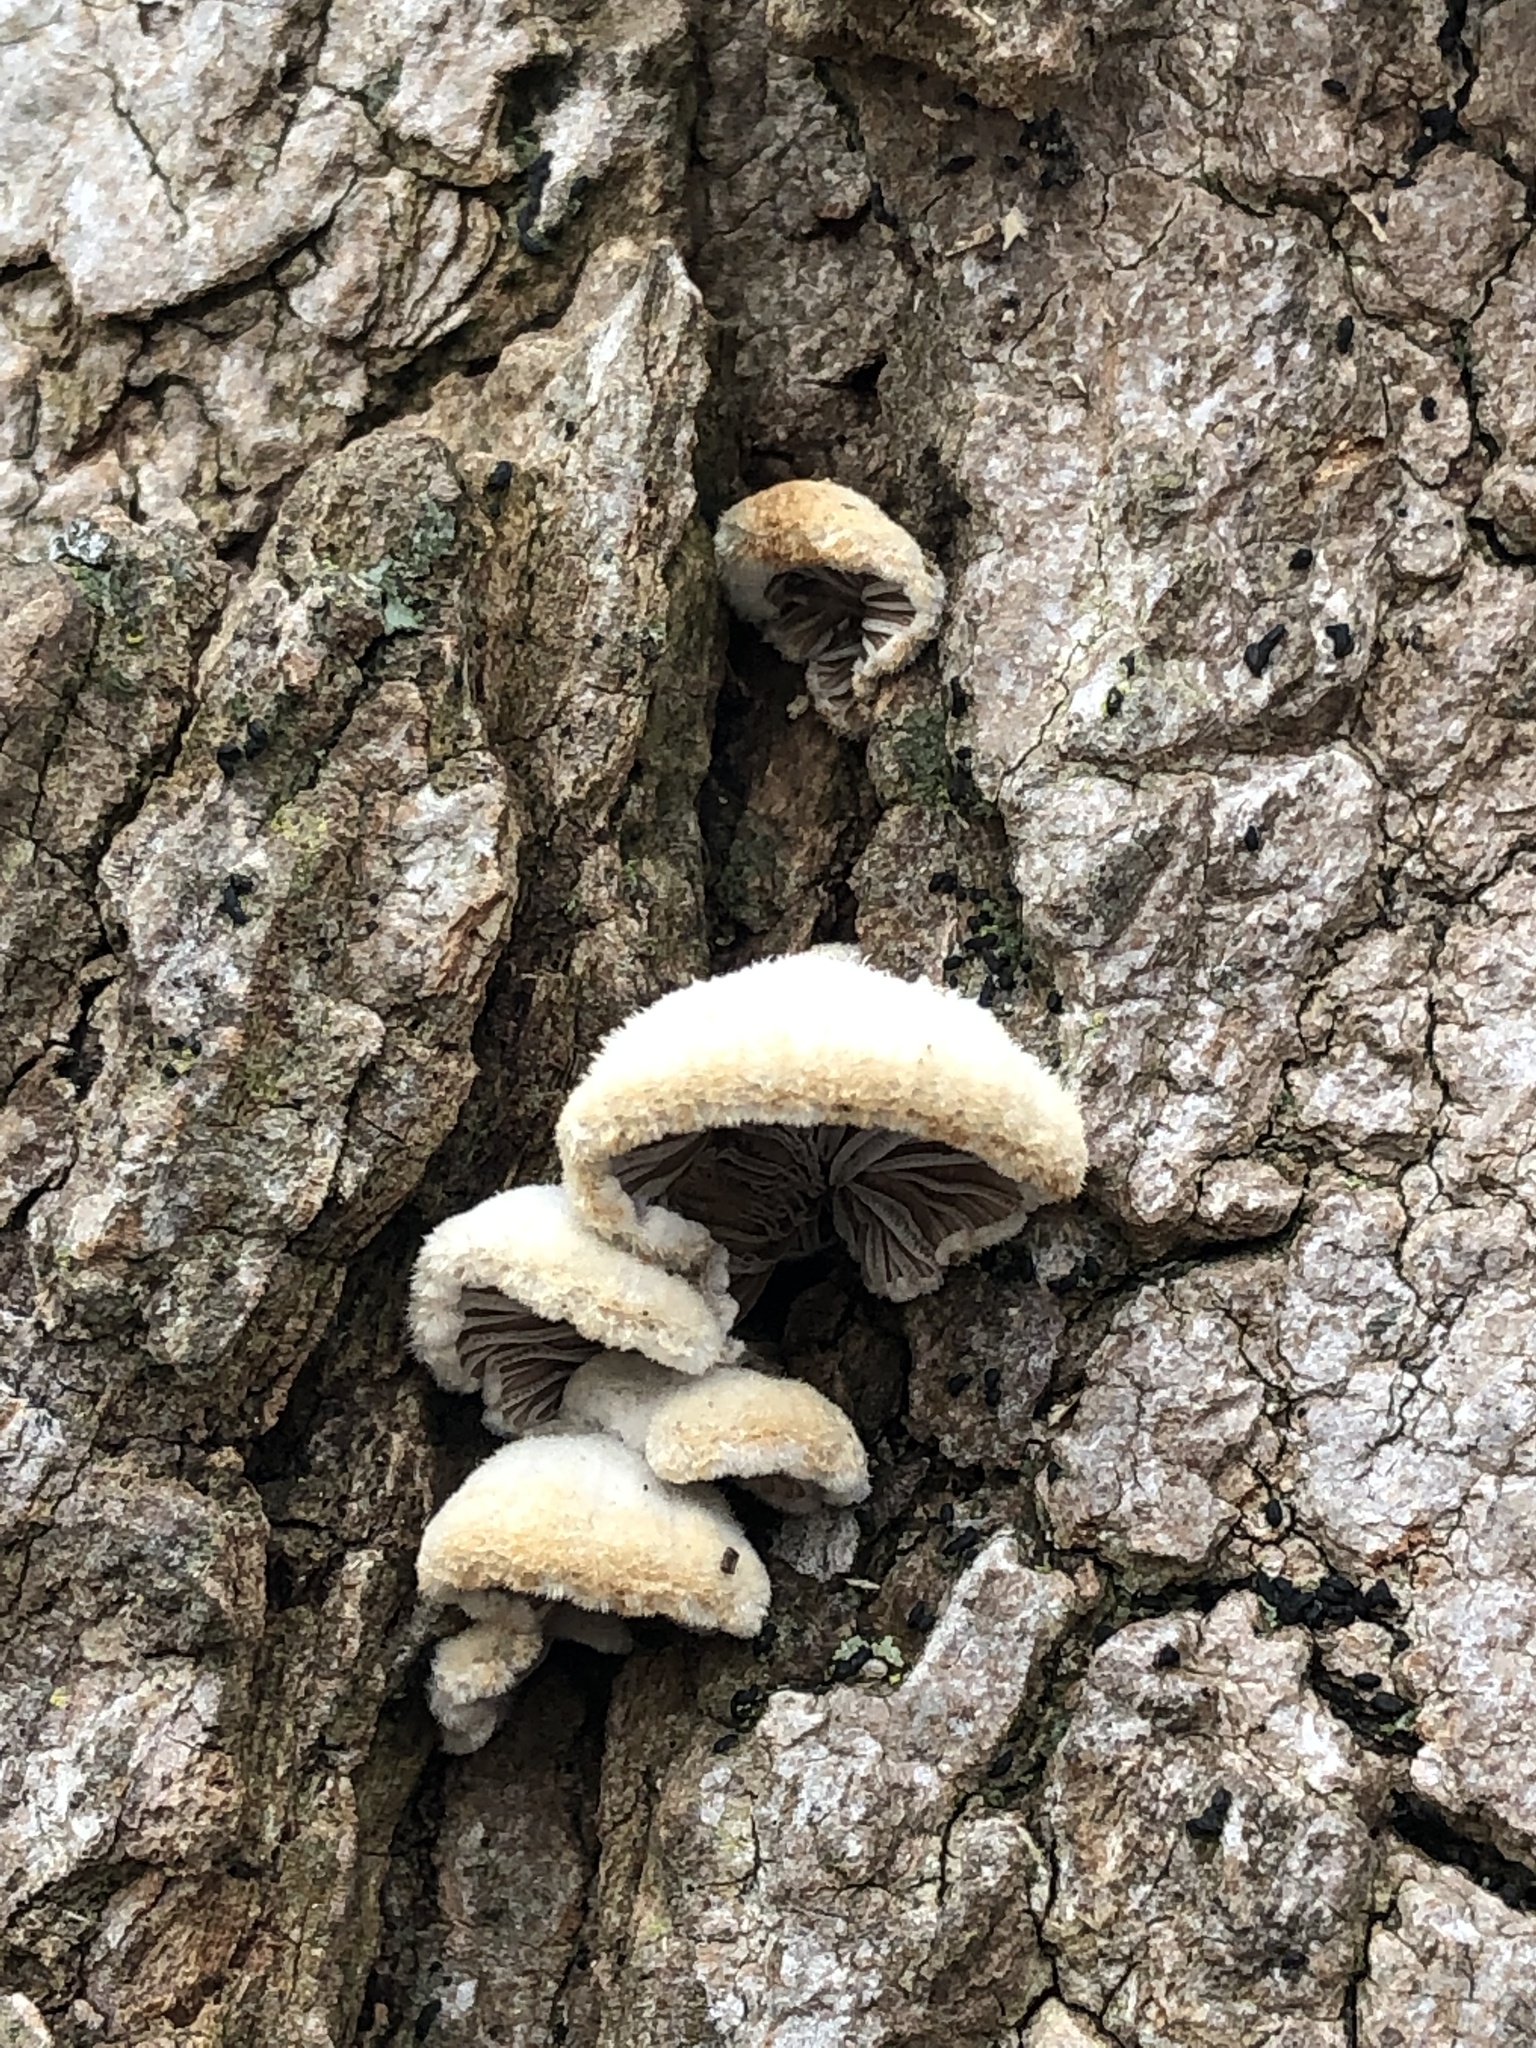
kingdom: Fungi
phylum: Basidiomycota
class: Agaricomycetes
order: Agaricales
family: Schizophyllaceae
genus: Schizophyllum
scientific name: Schizophyllum commune
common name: Common porecrust
